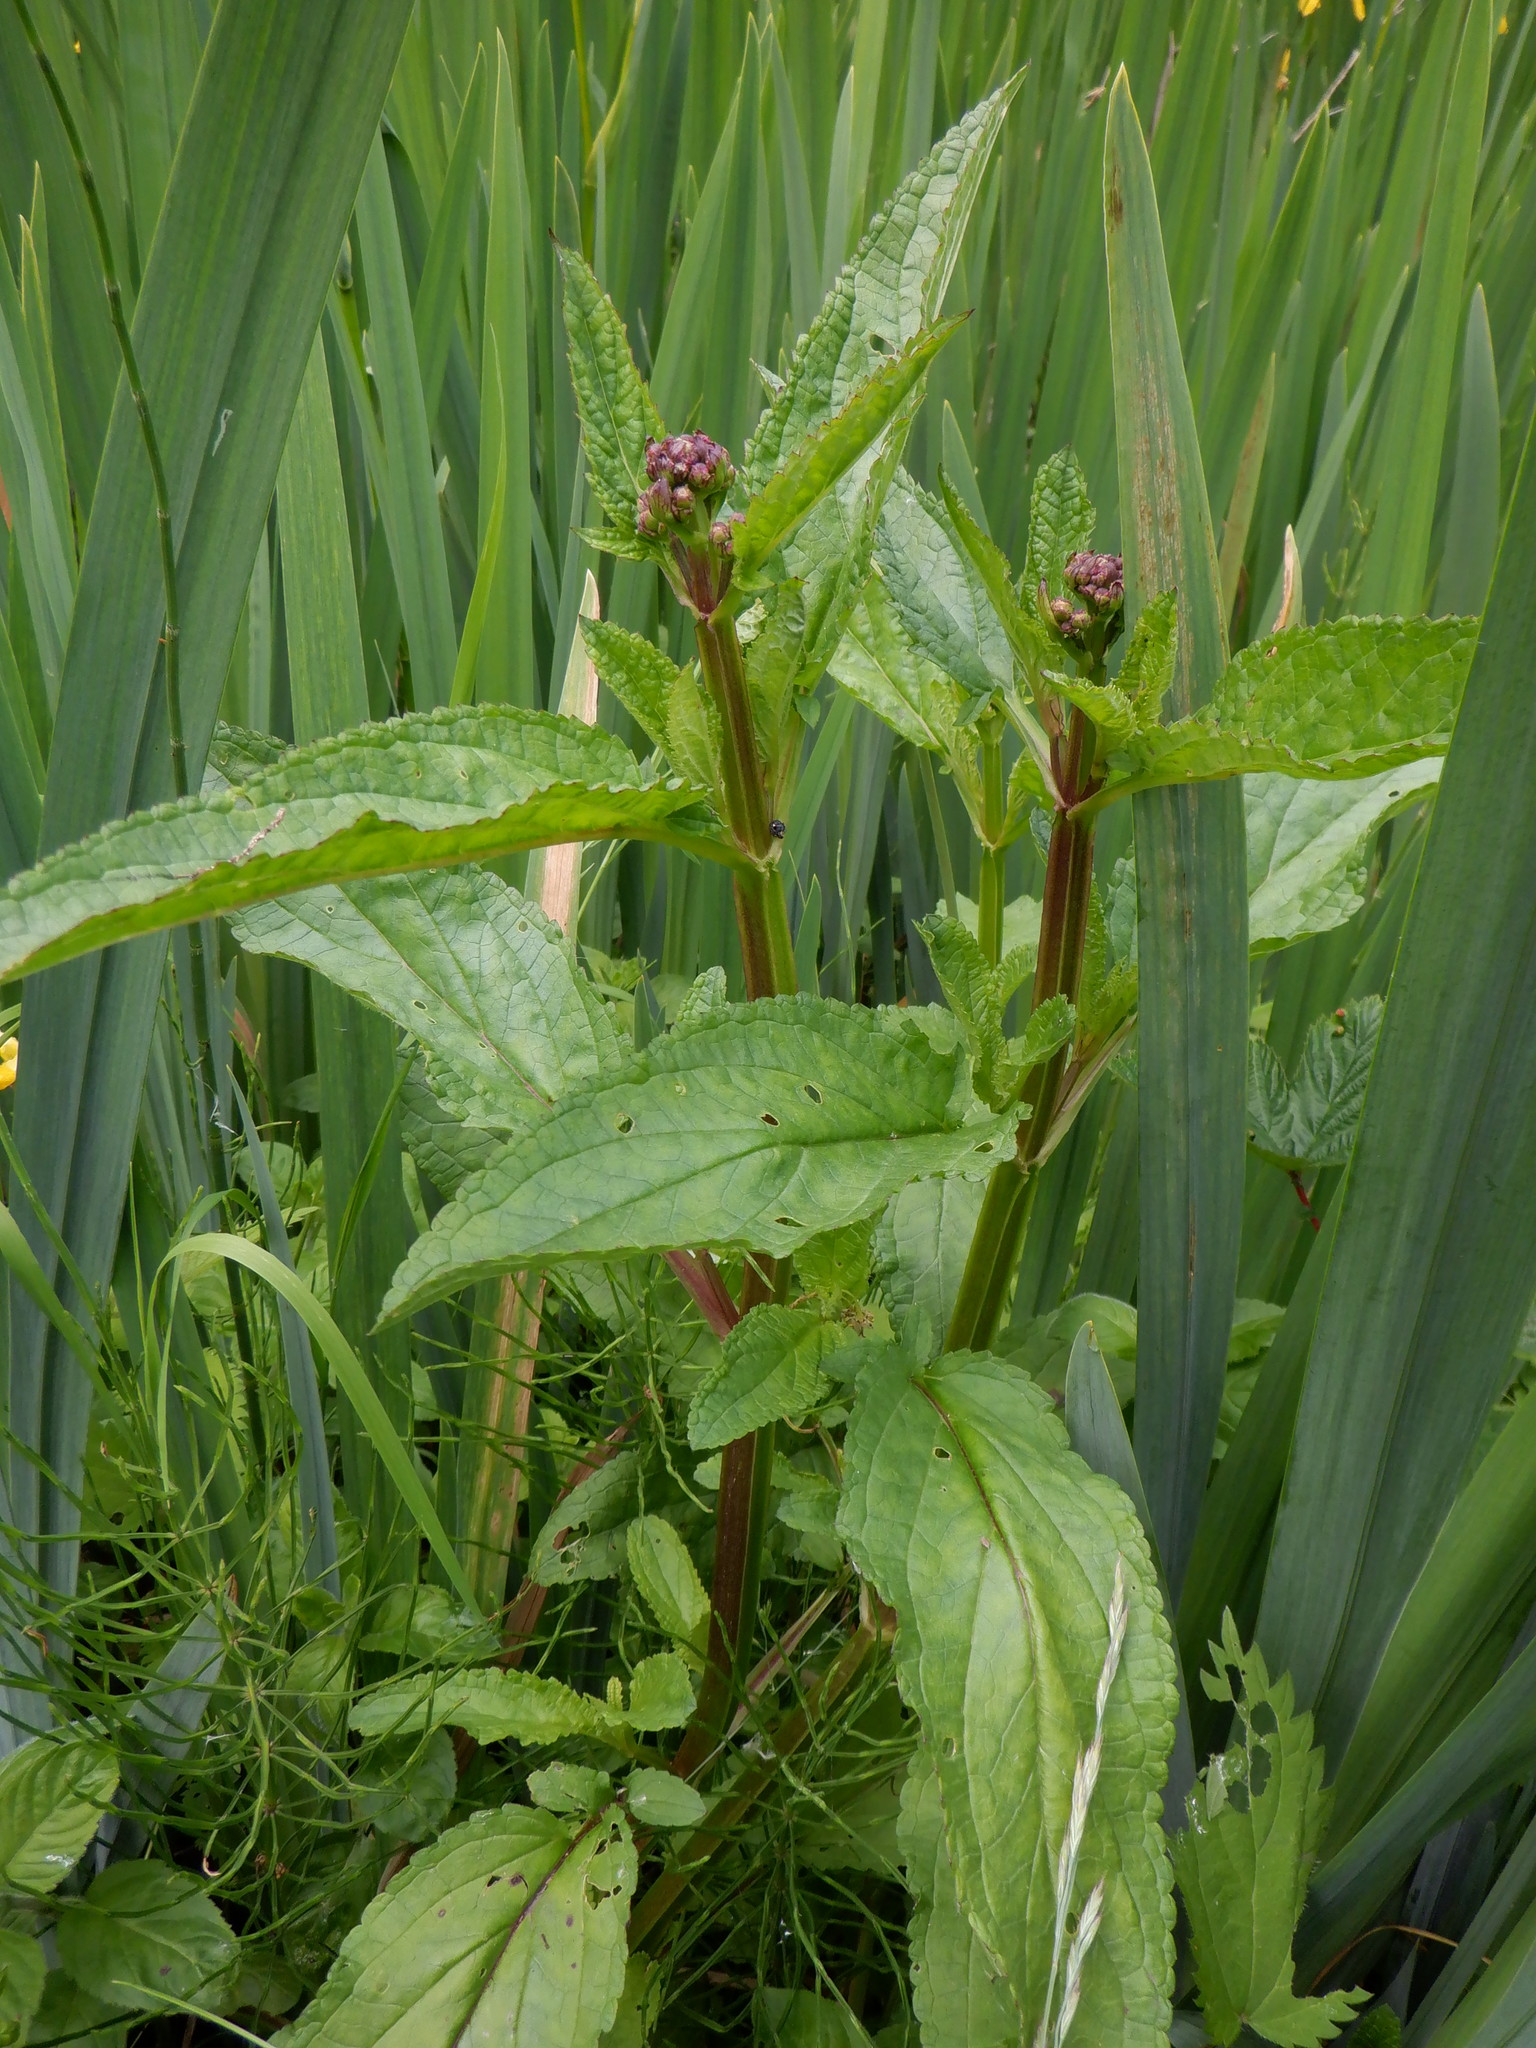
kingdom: Plantae
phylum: Tracheophyta
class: Magnoliopsida
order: Lamiales
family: Scrophulariaceae
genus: Scrophularia
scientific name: Scrophularia auriculata
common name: Water betony
